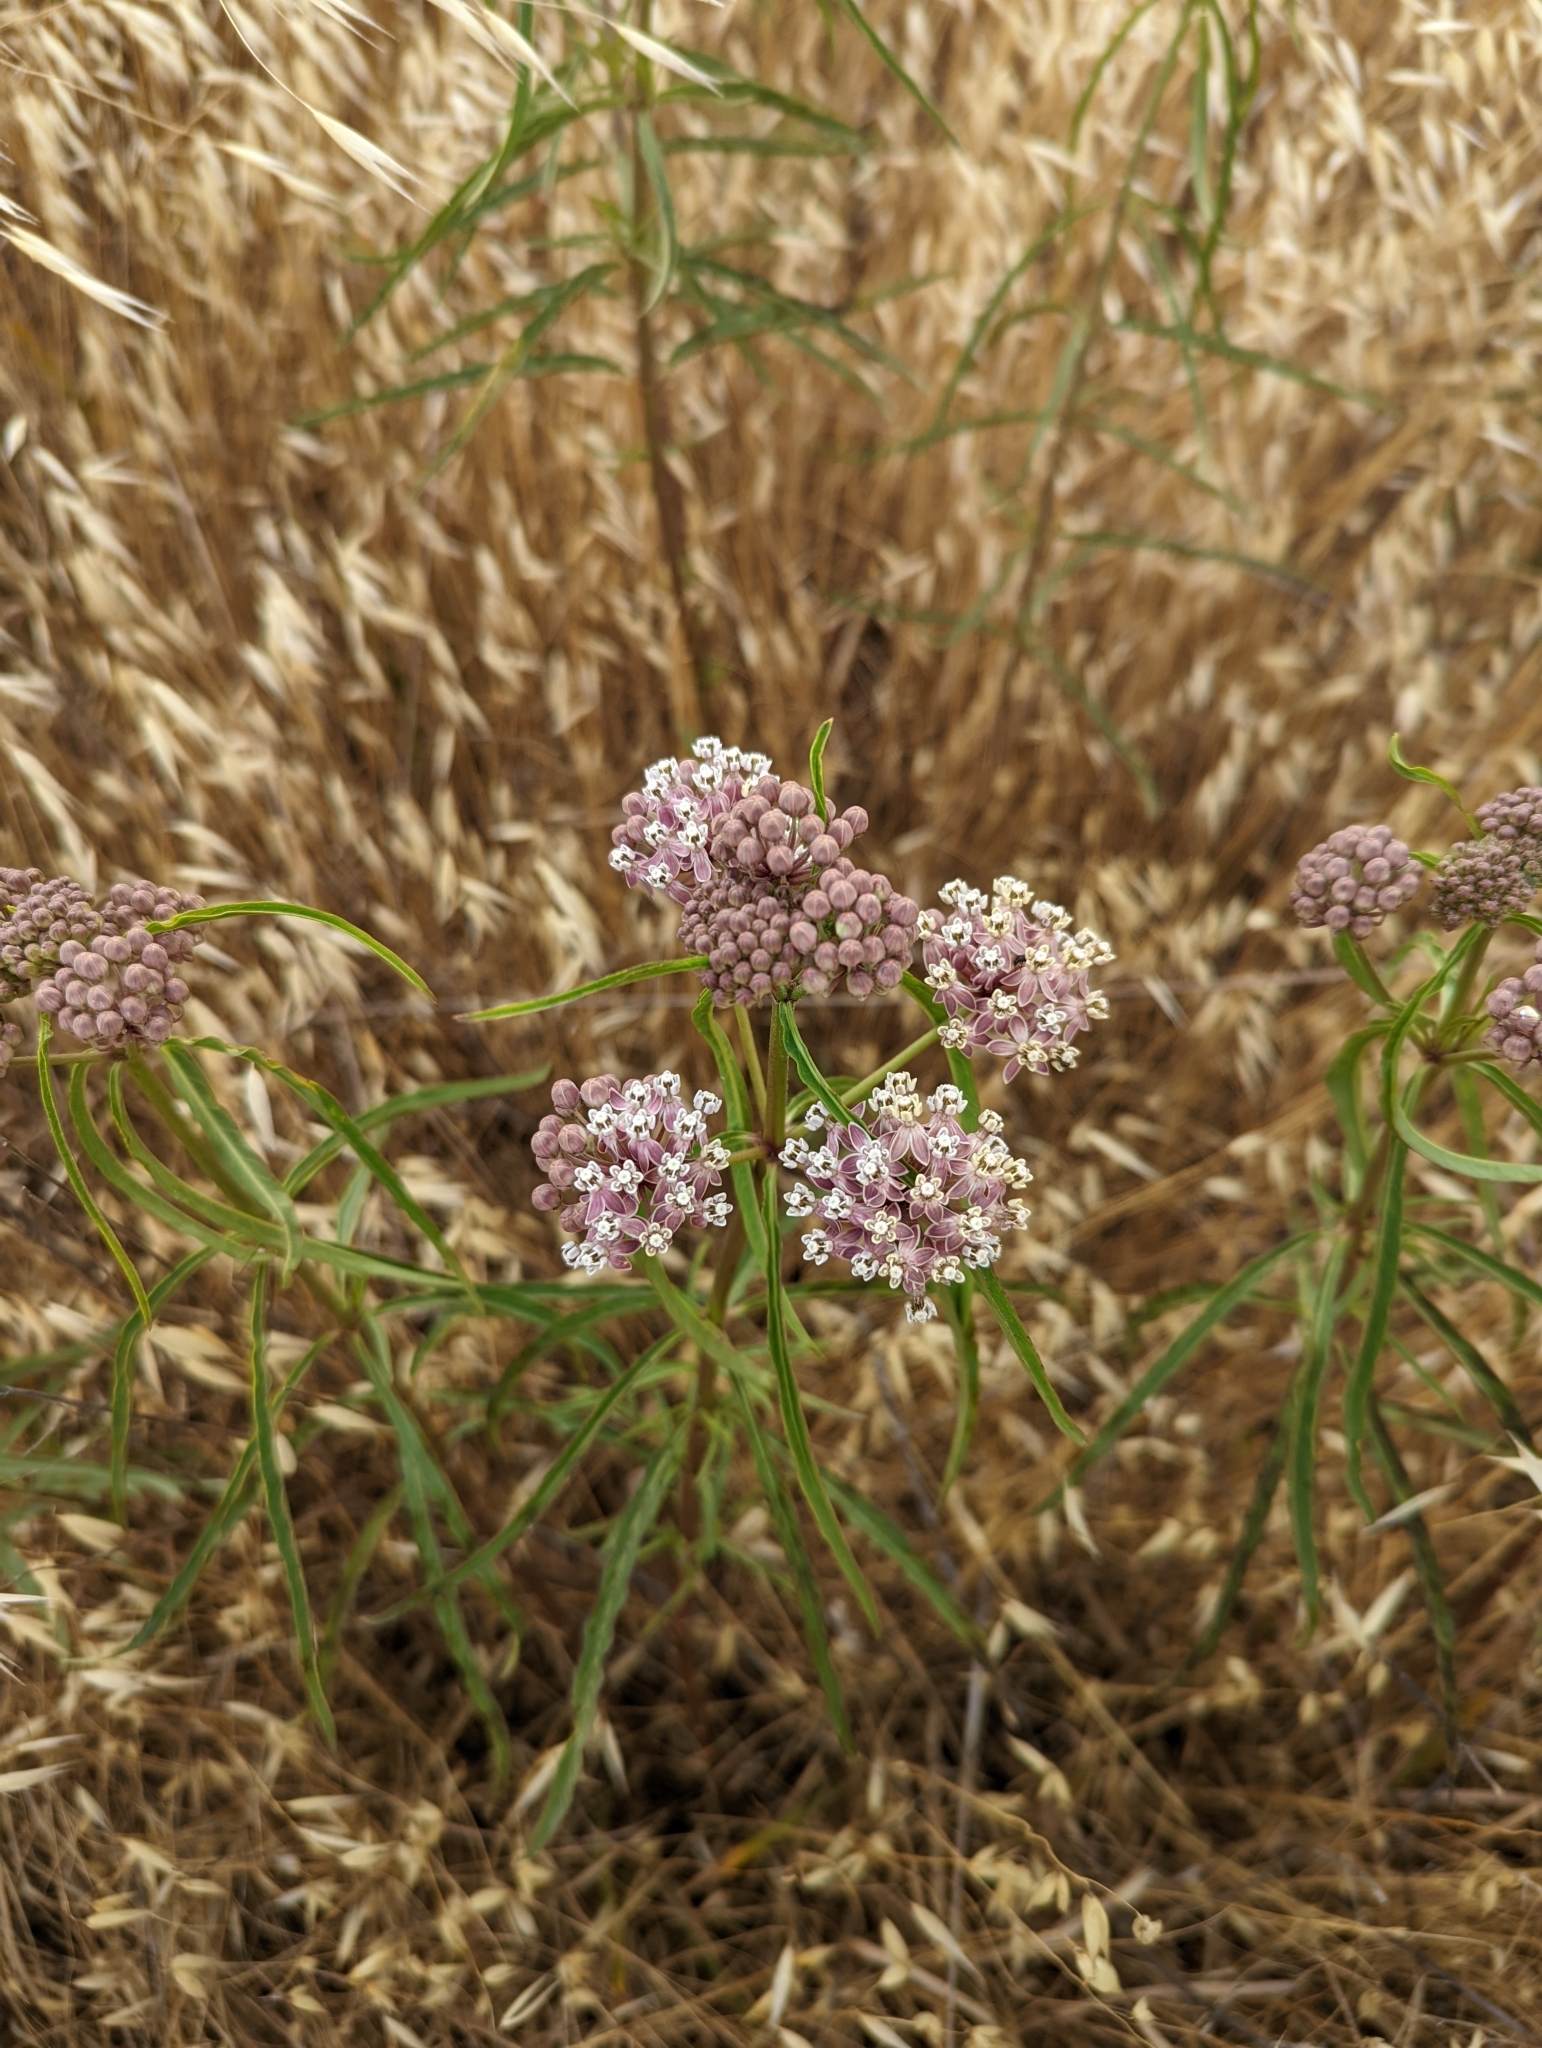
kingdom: Plantae
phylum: Tracheophyta
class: Magnoliopsida
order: Gentianales
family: Apocynaceae
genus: Asclepias
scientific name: Asclepias fascicularis
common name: Mexican milkweed
